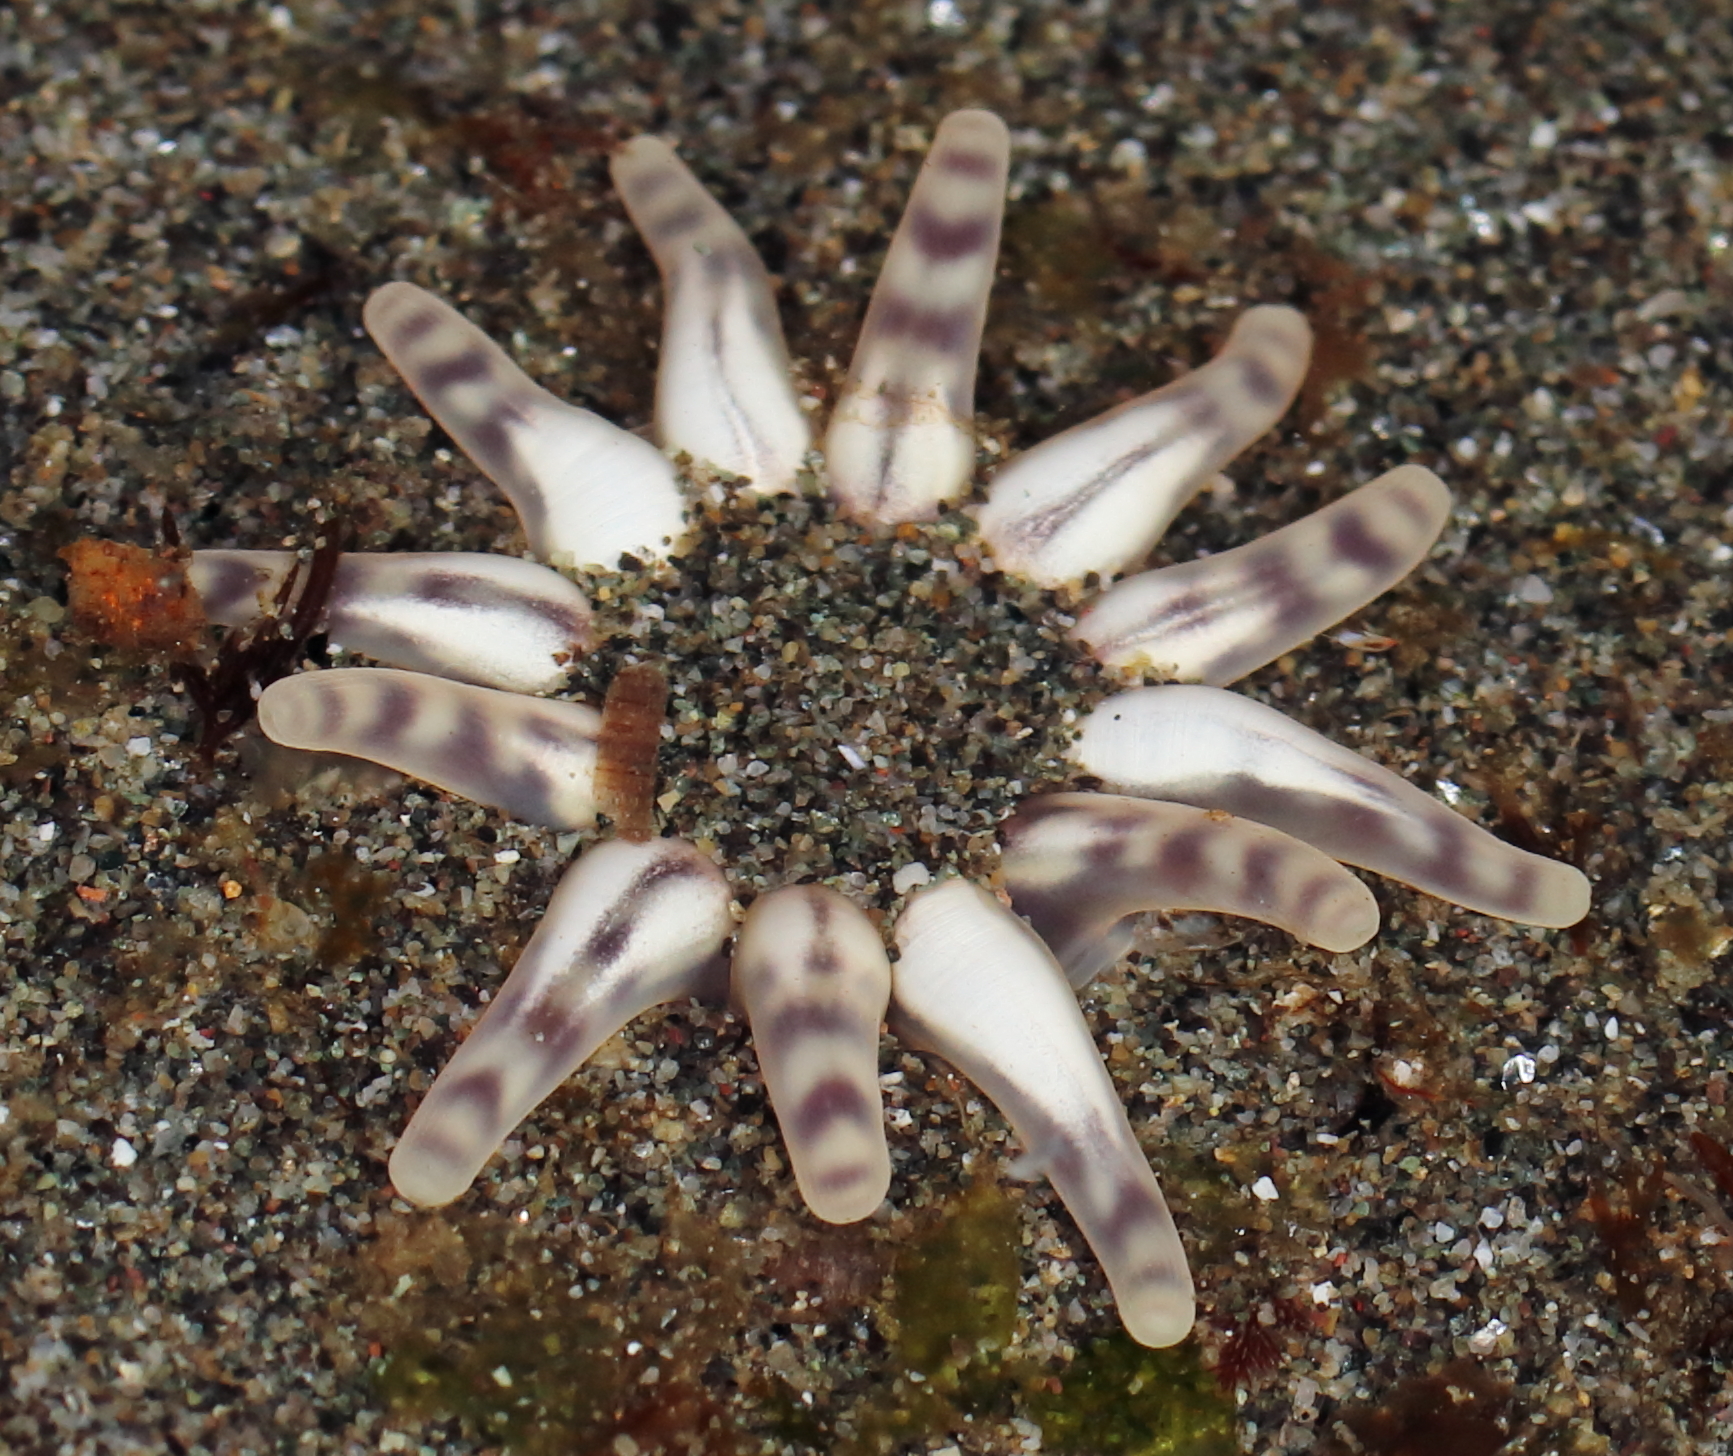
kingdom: Animalia
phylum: Cnidaria
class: Anthozoa
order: Actiniaria
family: Peachiidae
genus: Peachia
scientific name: Peachia quinquecapitata
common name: Twelve-tentacled parasitic anemone
